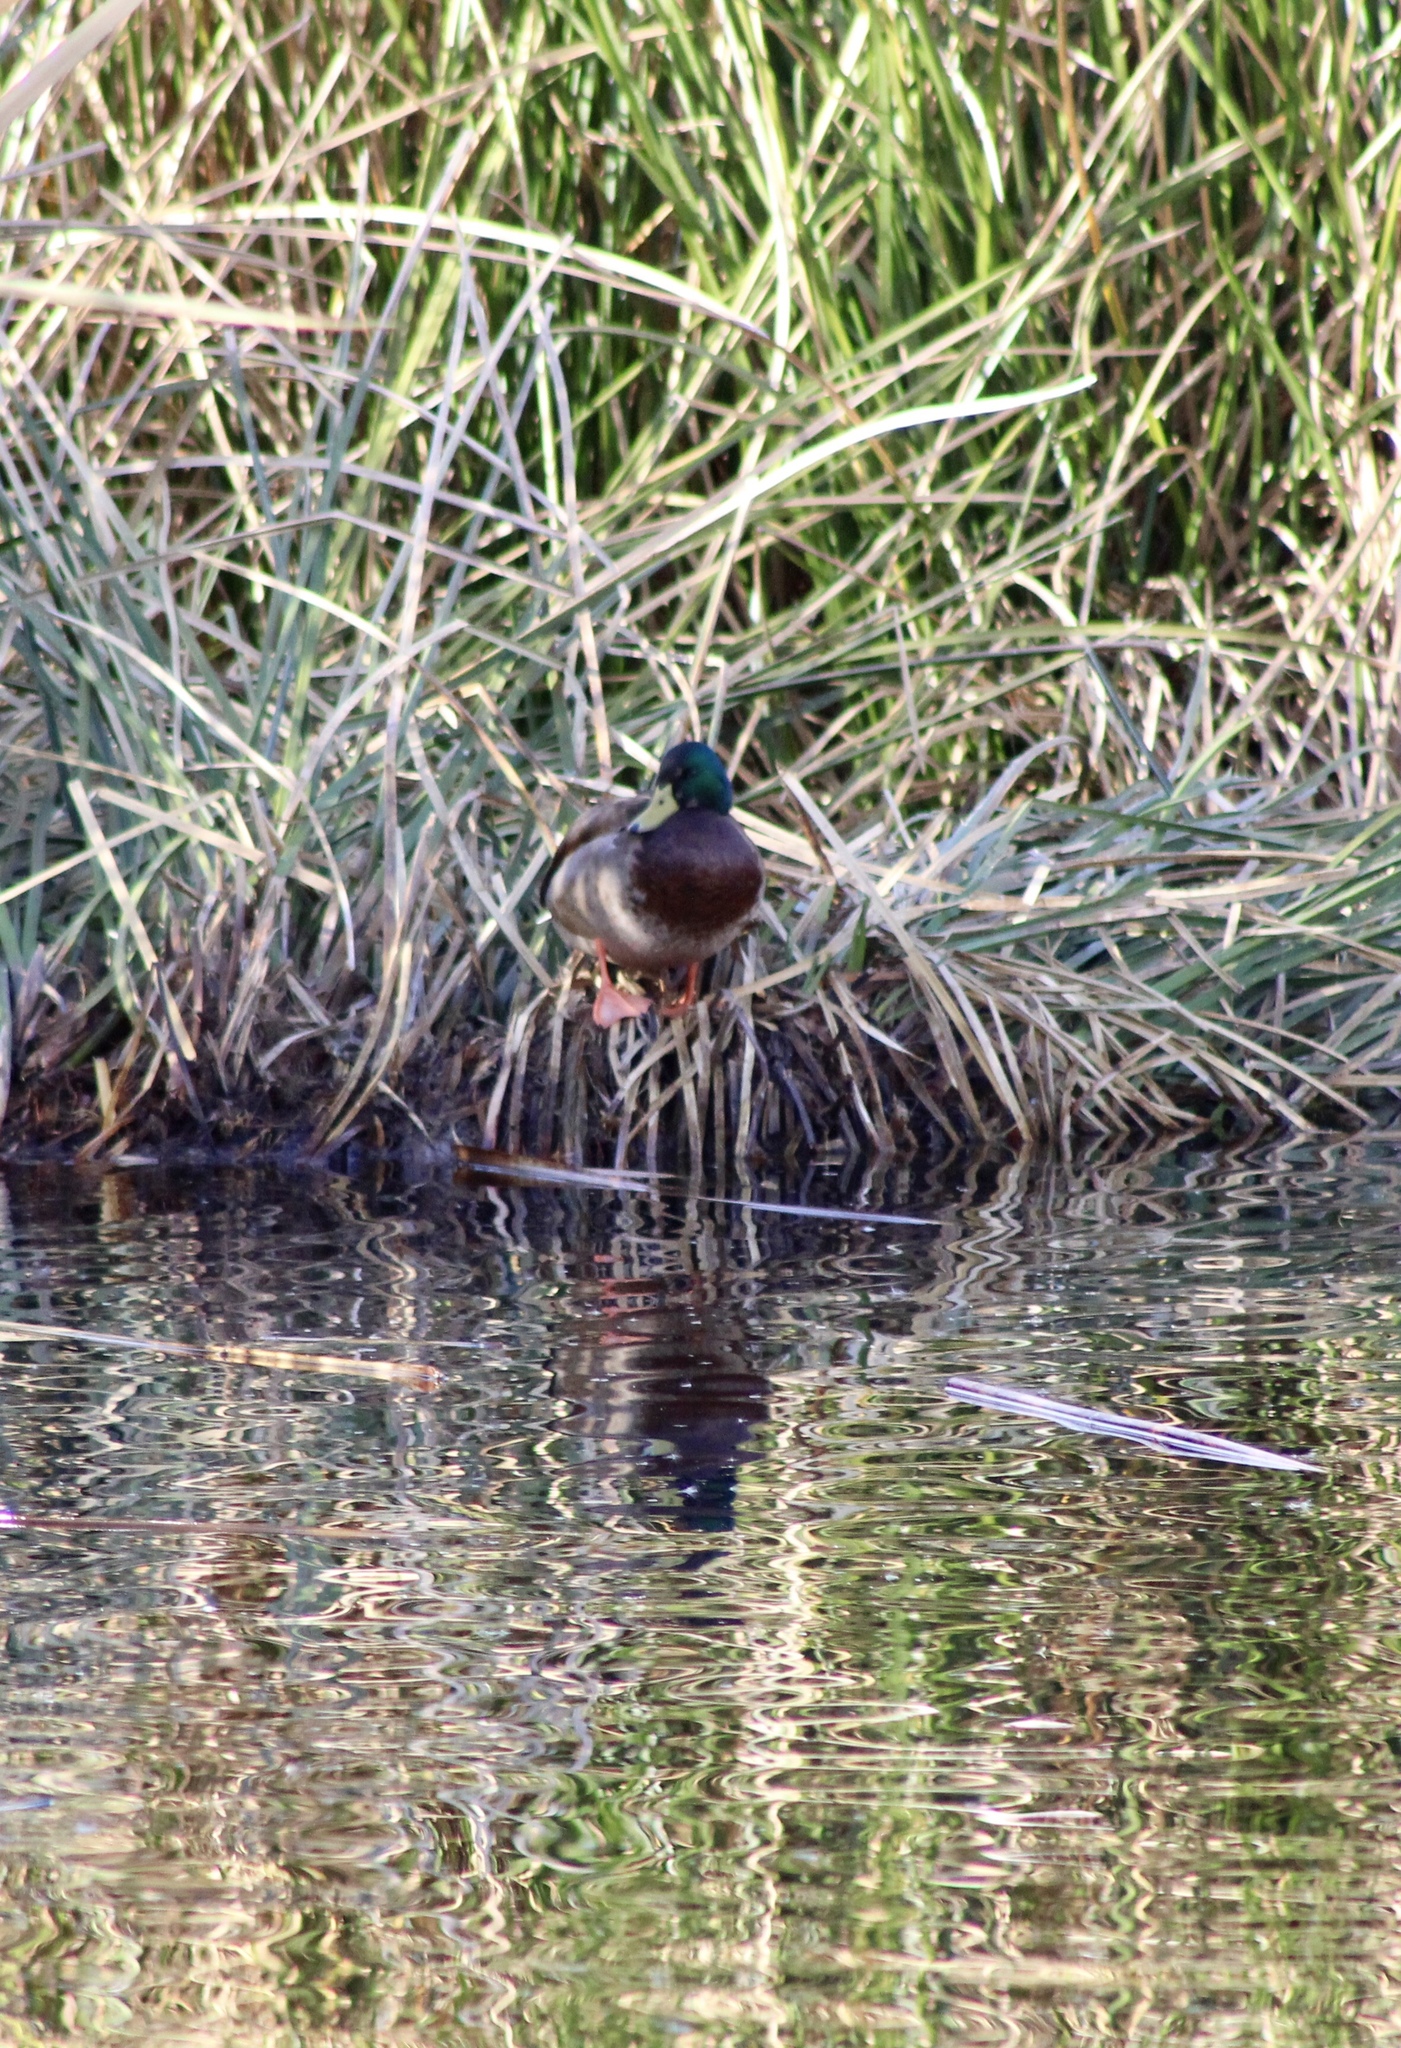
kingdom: Animalia
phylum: Chordata
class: Aves
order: Anseriformes
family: Anatidae
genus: Anas
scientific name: Anas platyrhynchos
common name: Mallard
